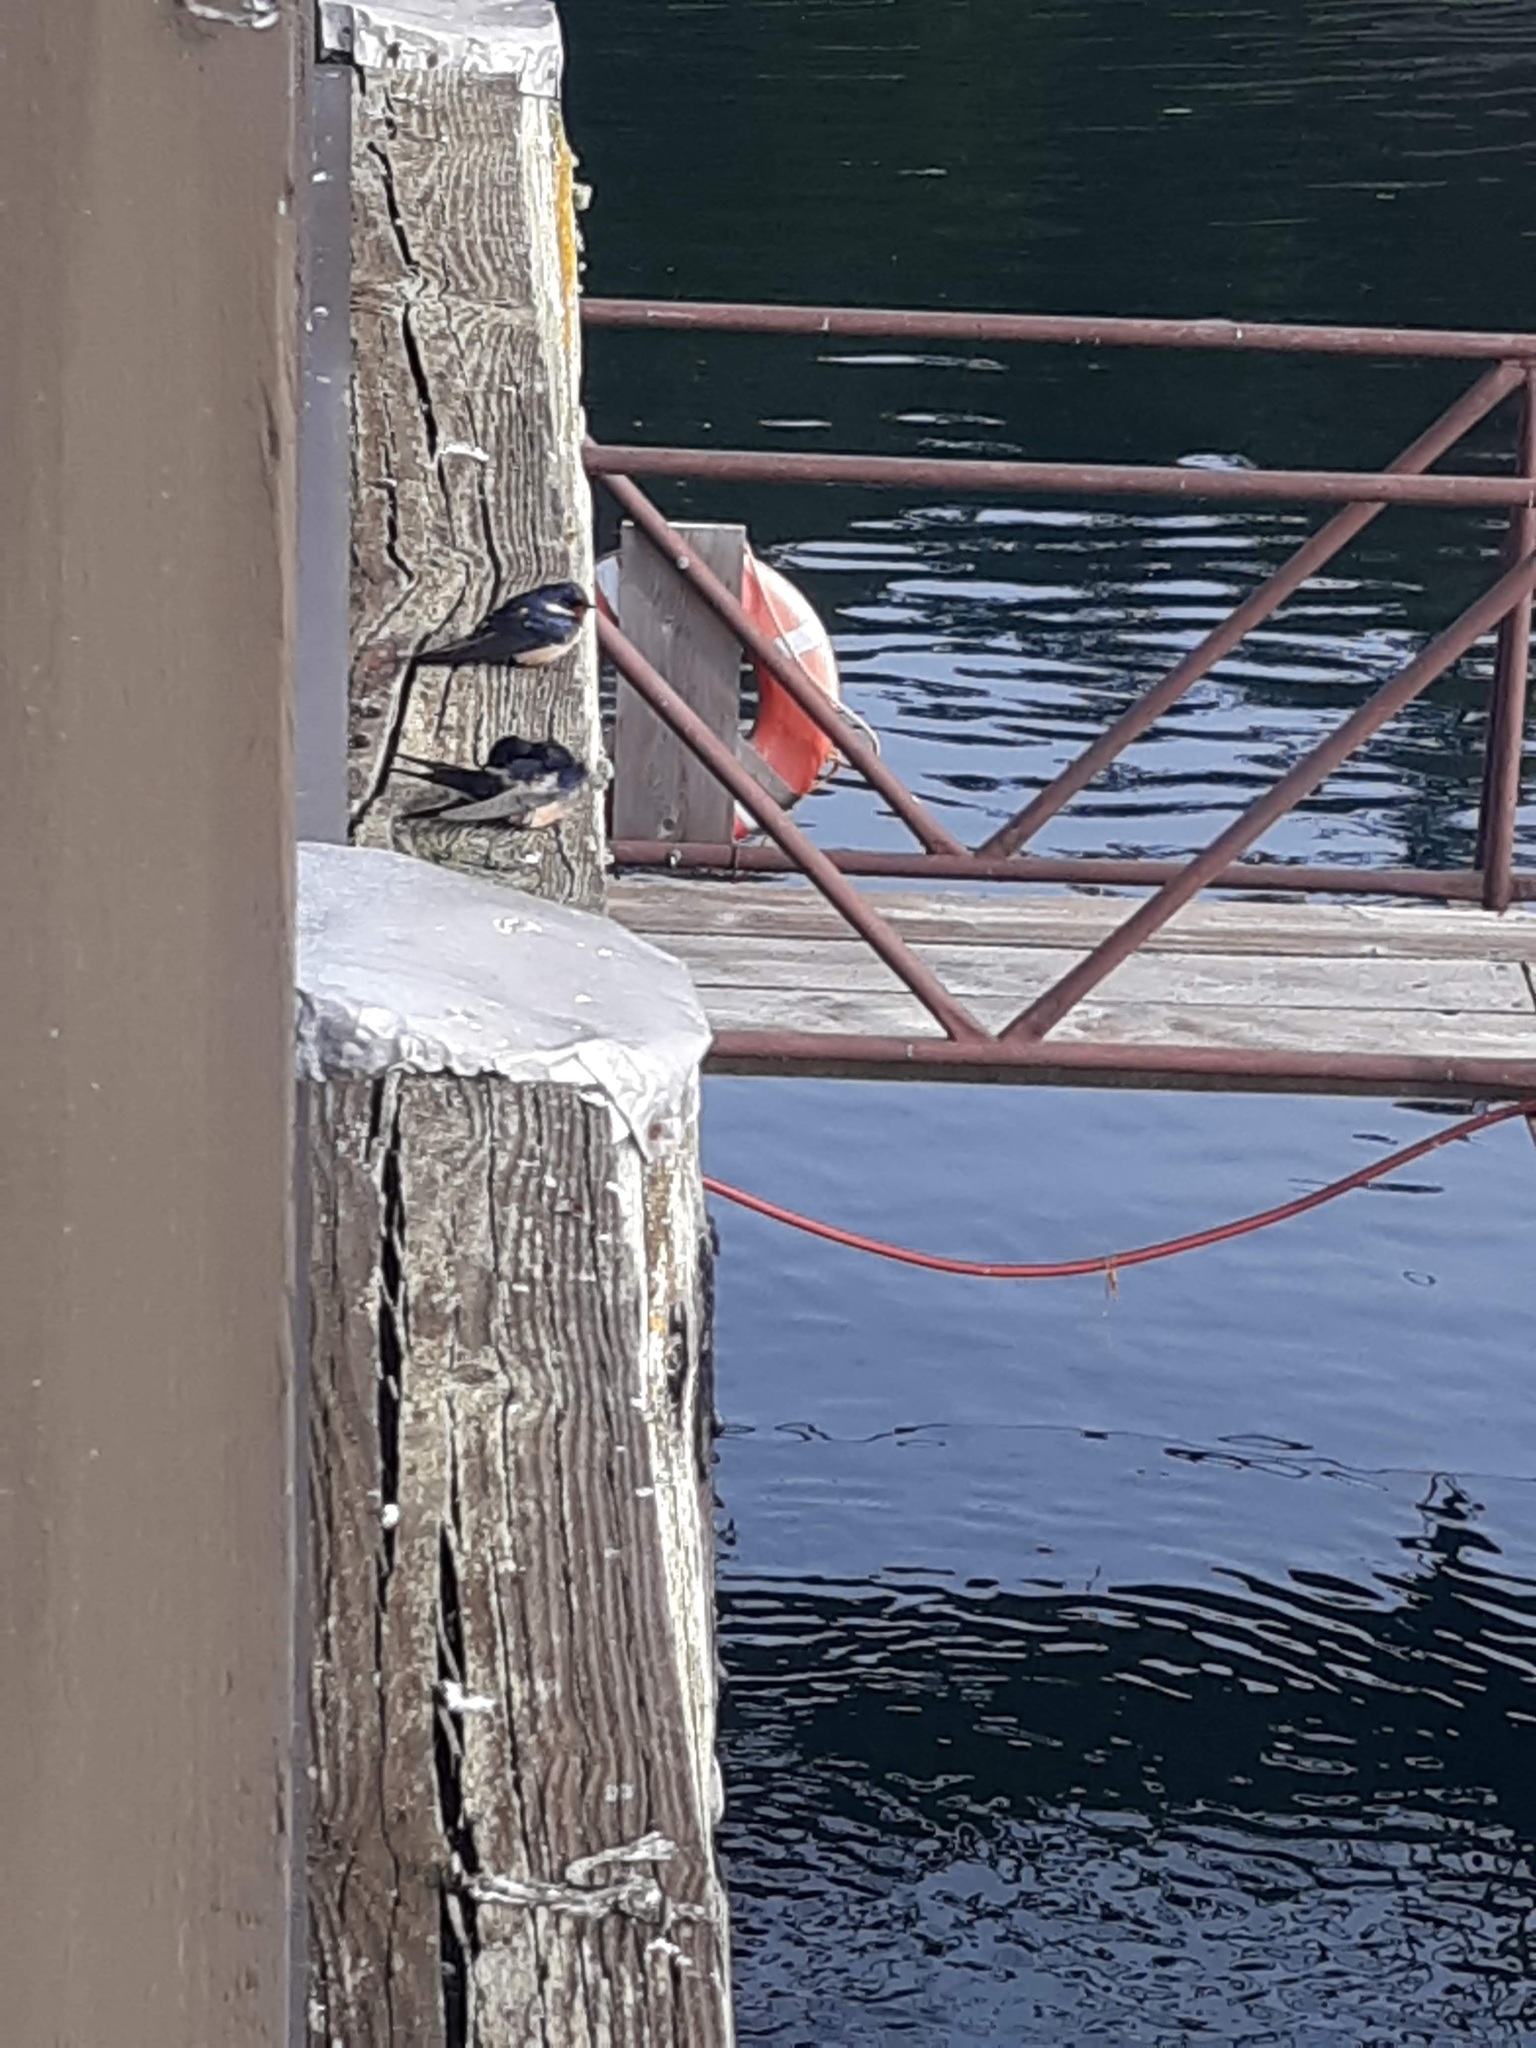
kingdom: Animalia
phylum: Chordata
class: Aves
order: Passeriformes
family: Hirundinidae
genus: Hirundo
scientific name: Hirundo rustica
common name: Barn swallow
